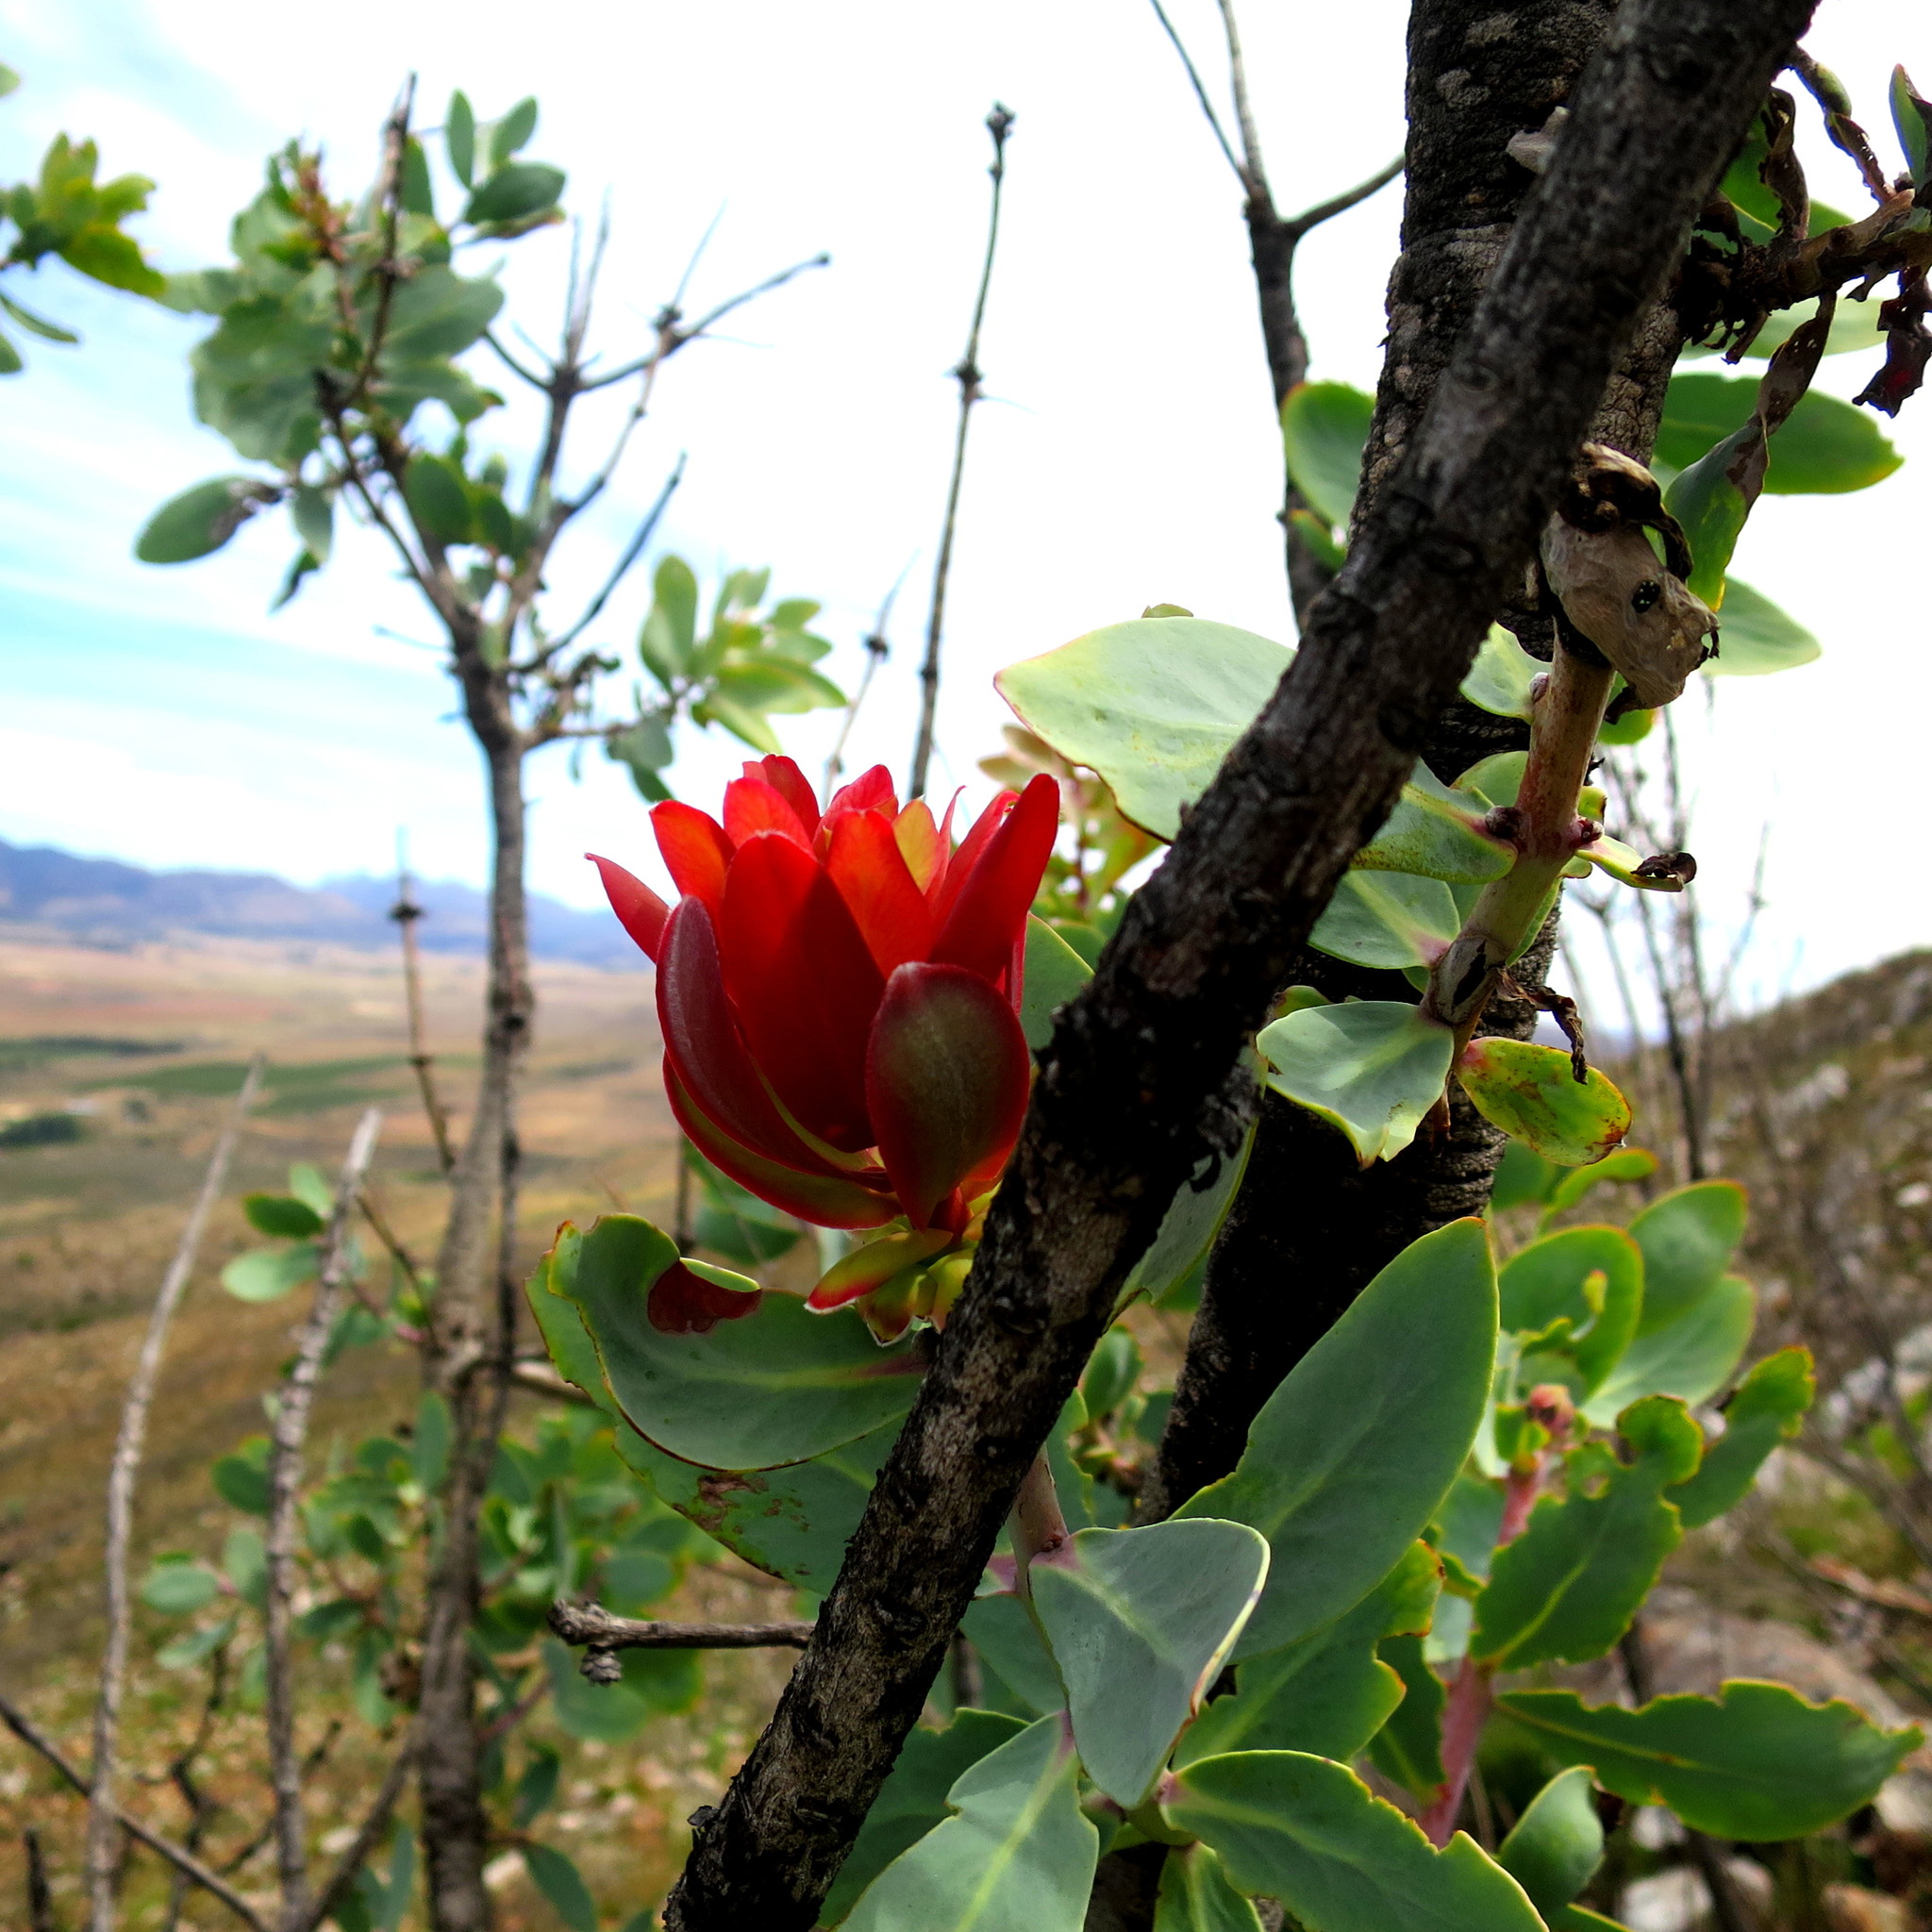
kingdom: Plantae
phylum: Tracheophyta
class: Magnoliopsida
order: Proteales
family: Proteaceae
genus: Protea
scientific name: Protea nitida
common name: Tree protea
